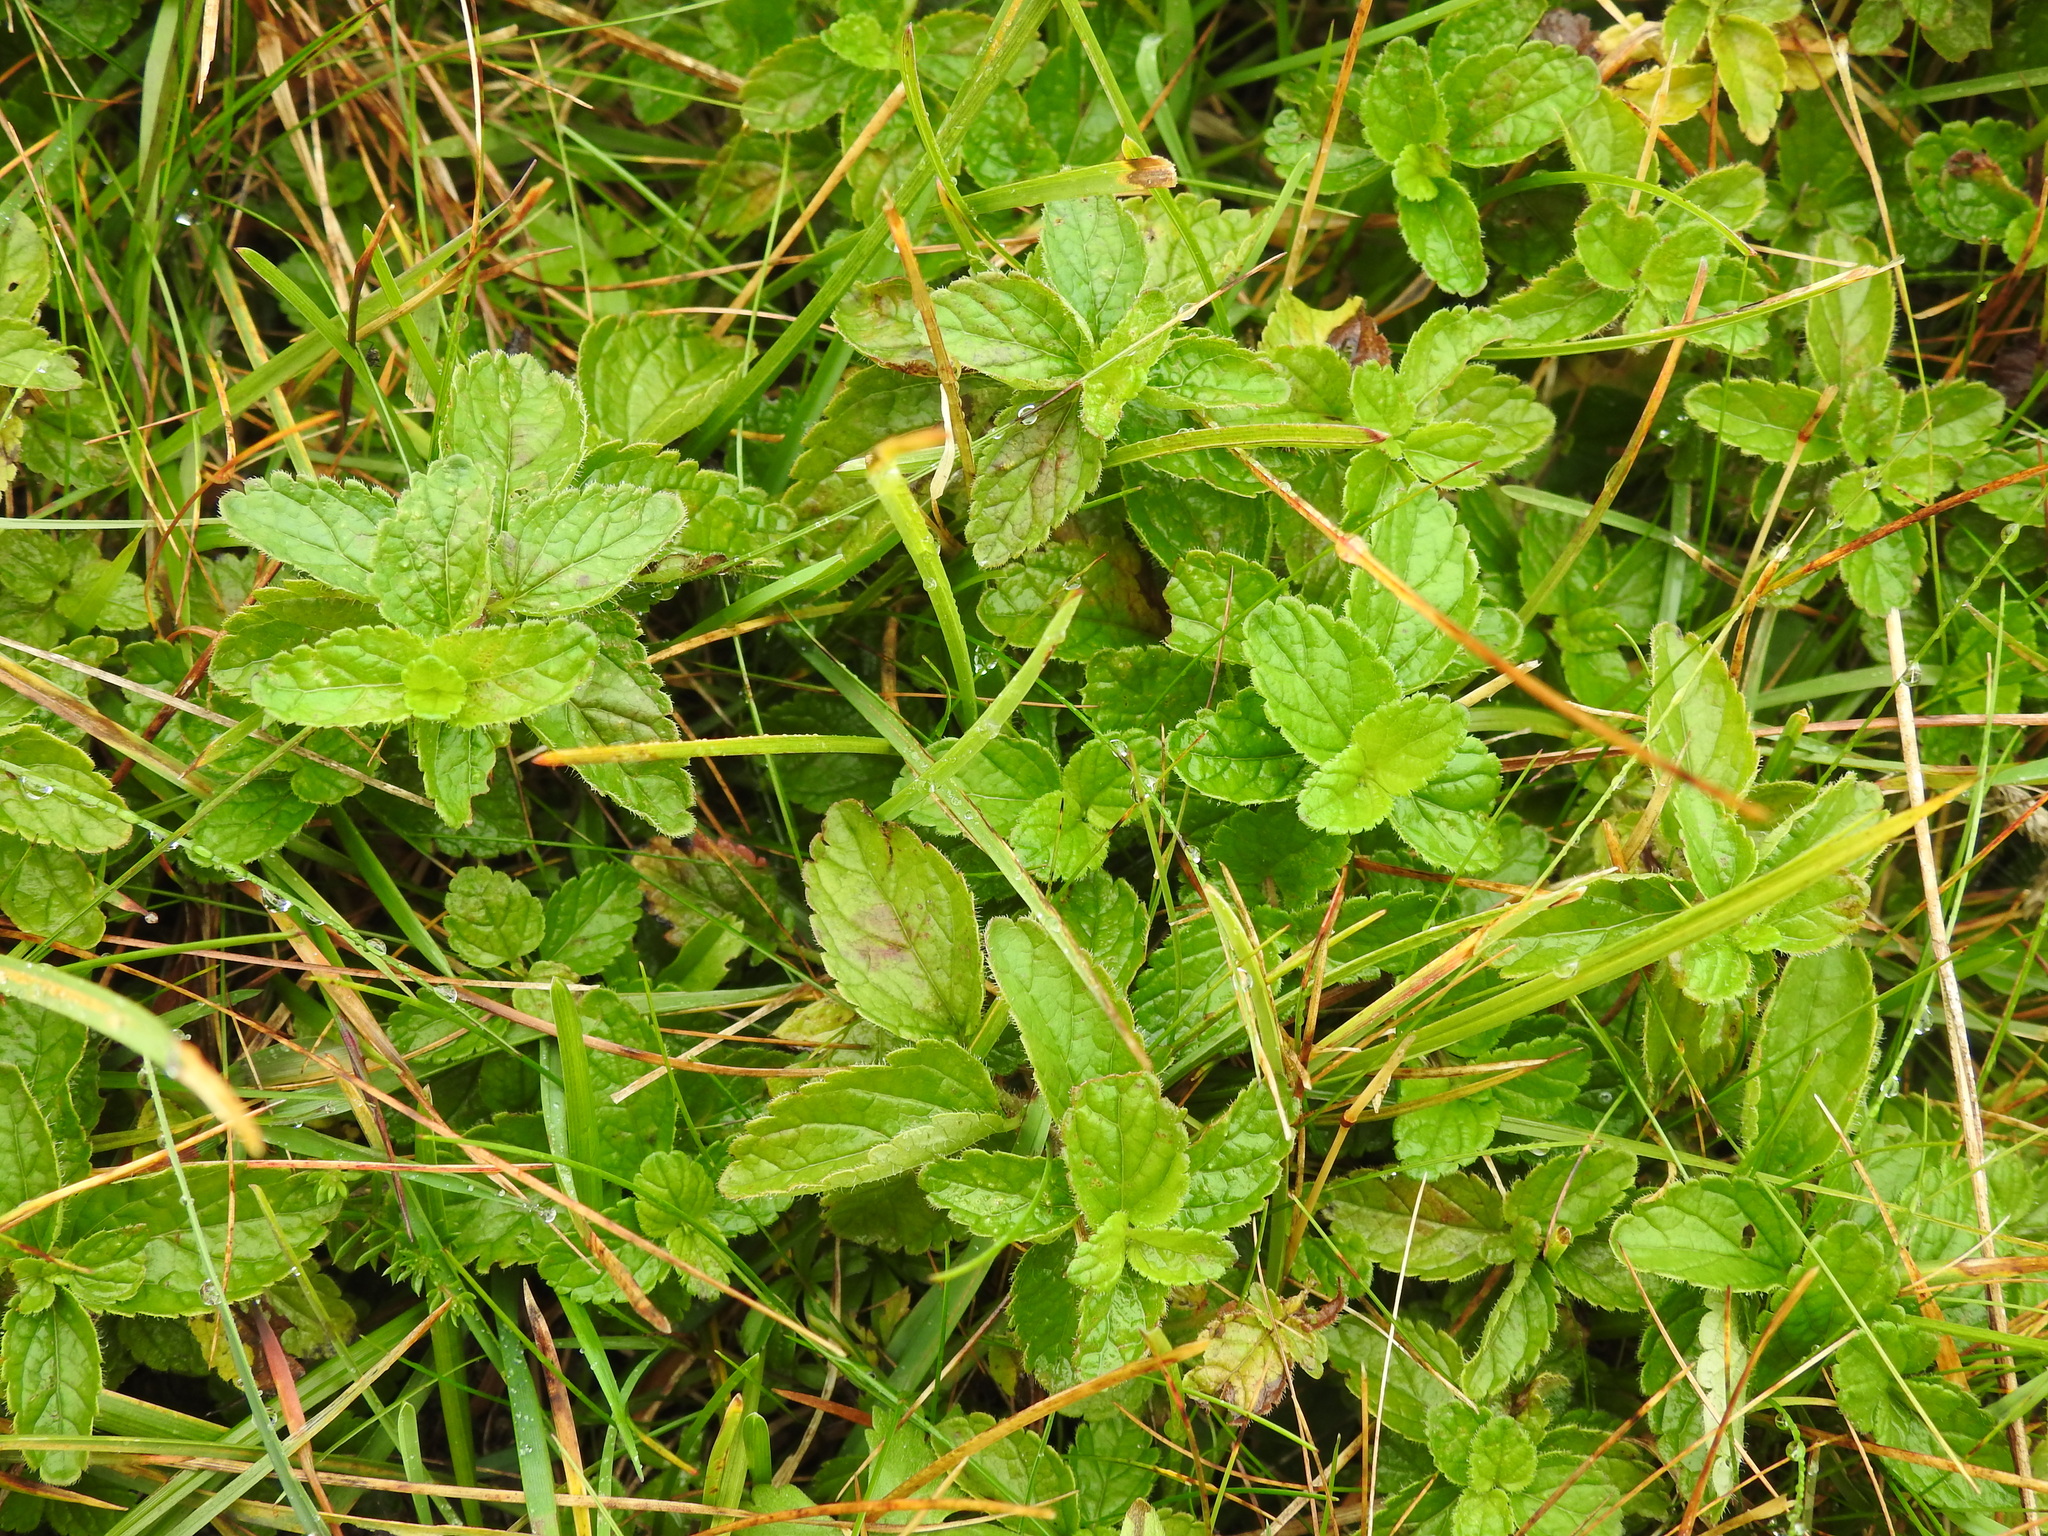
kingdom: Plantae
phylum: Tracheophyta
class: Magnoliopsida
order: Lamiales
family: Plantaginaceae
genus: Veronica
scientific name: Veronica chamaedrys
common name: Germander speedwell
